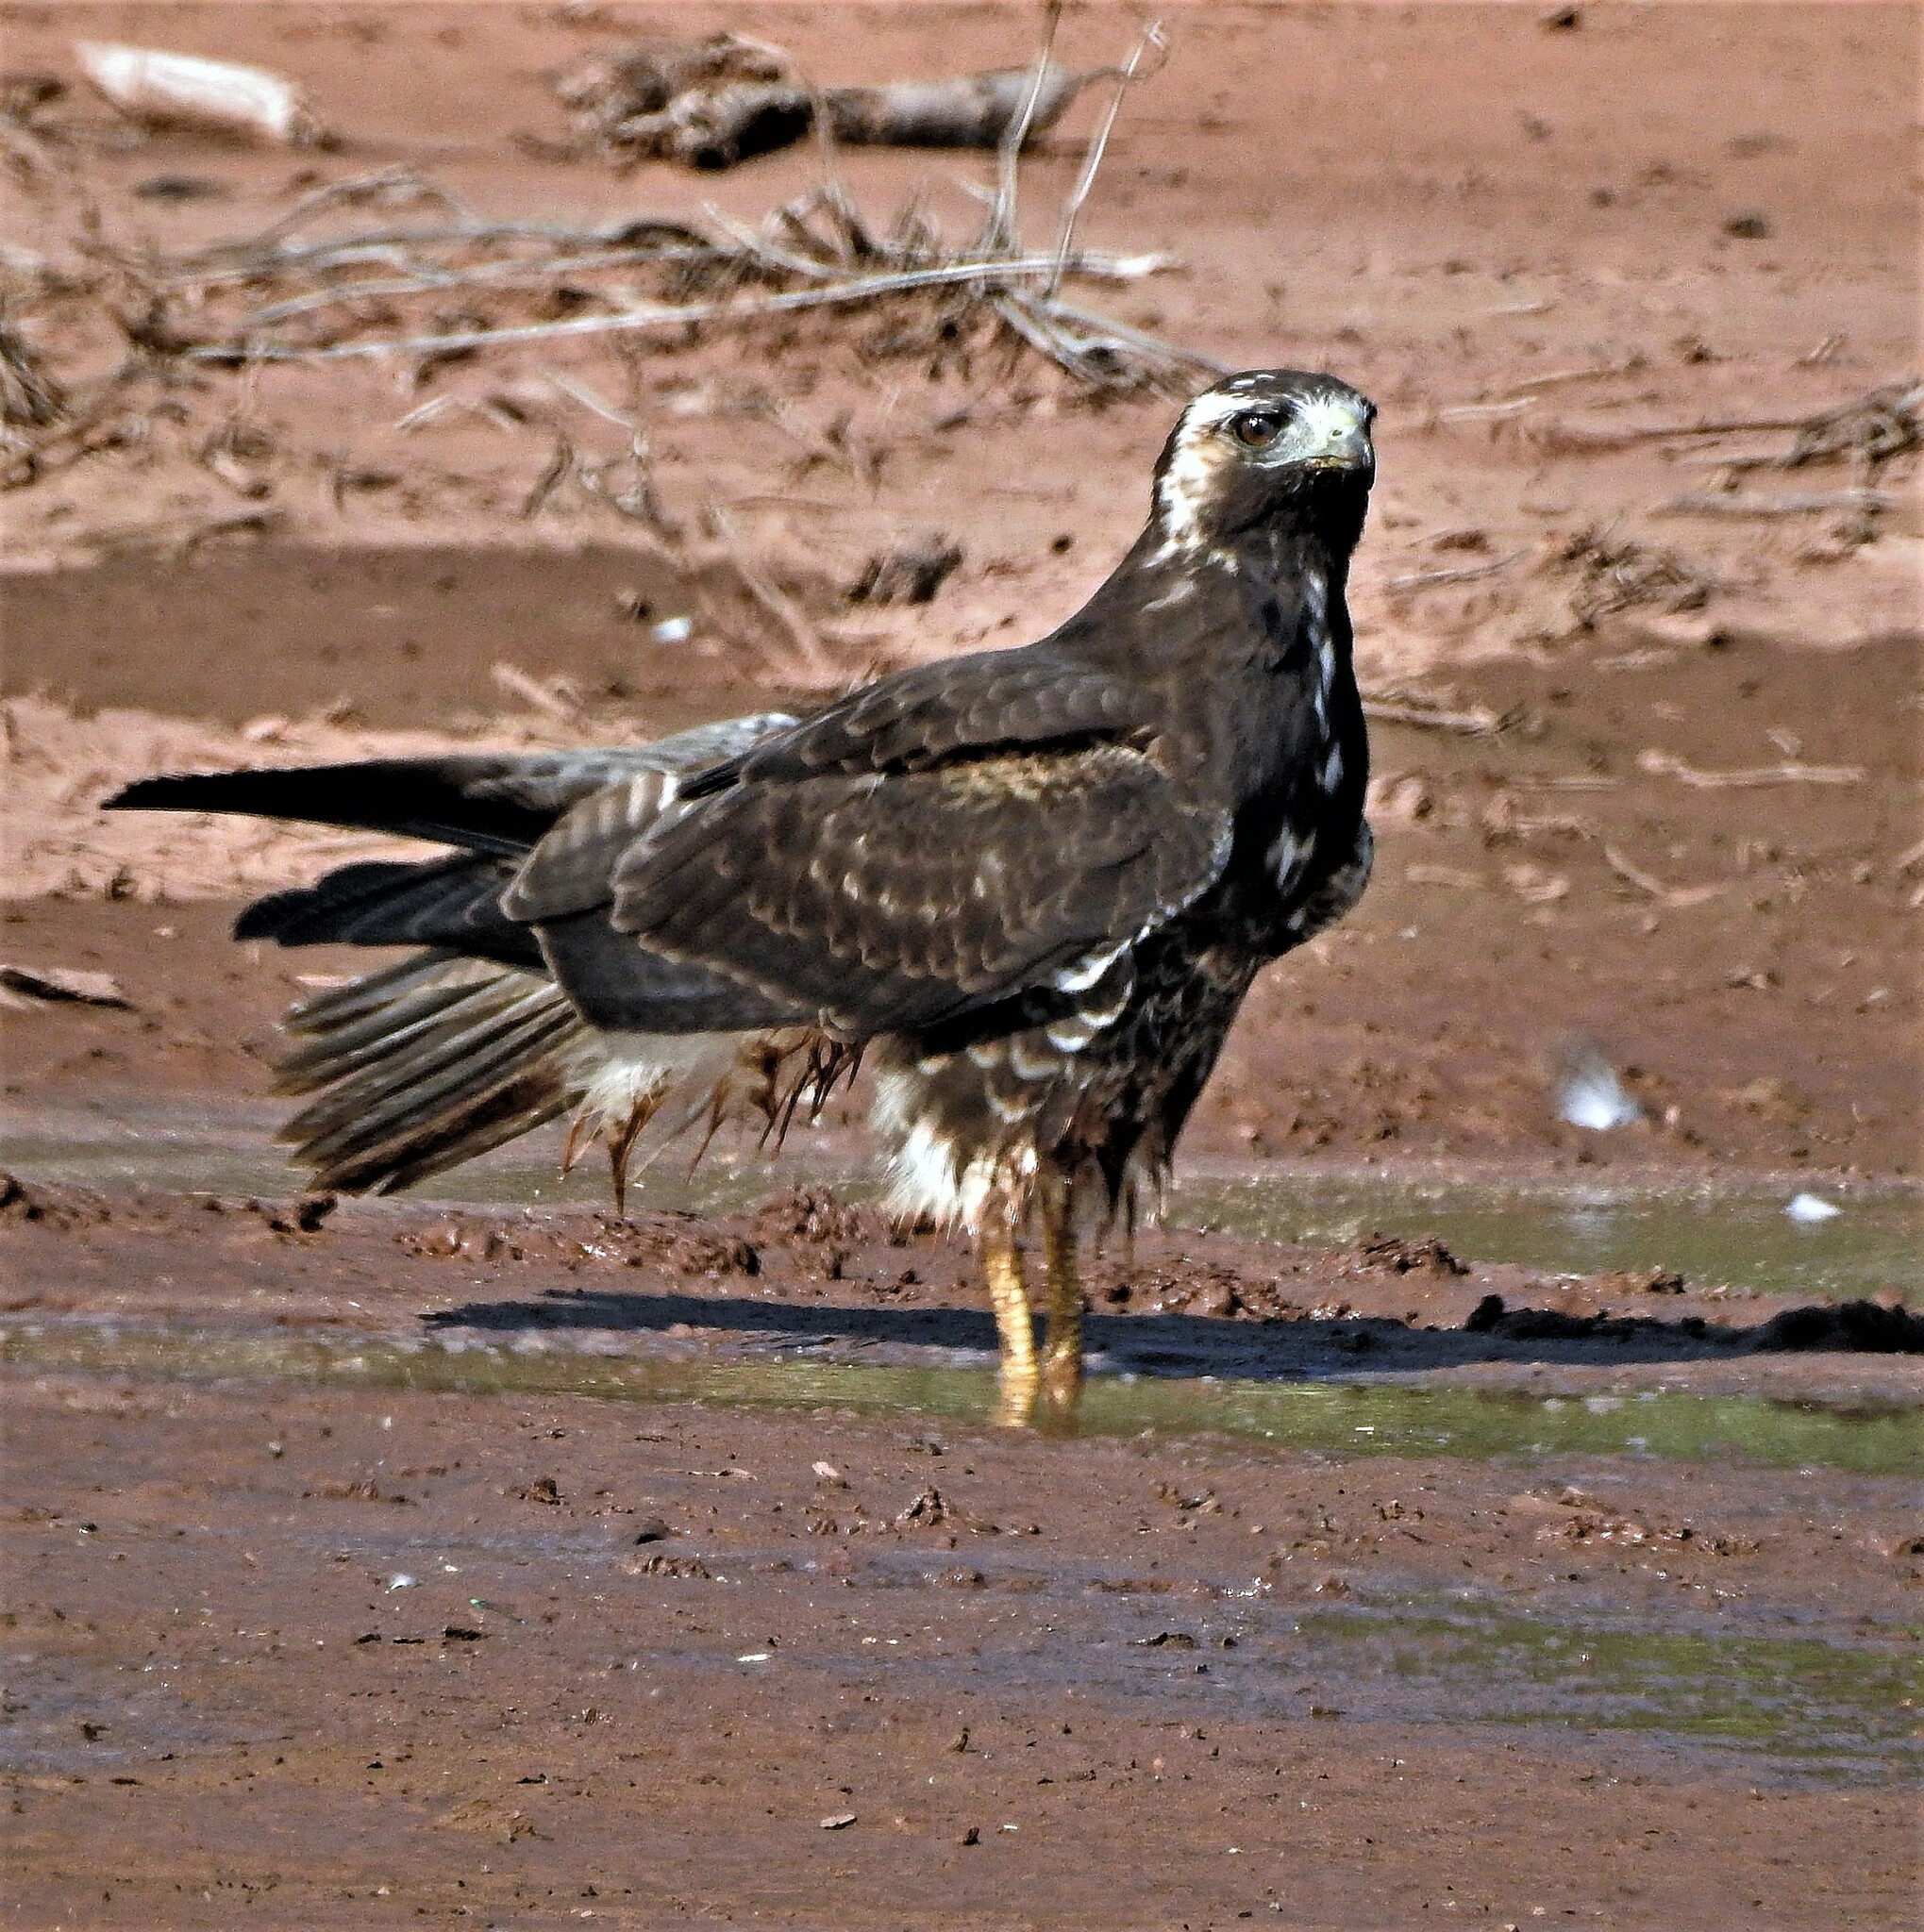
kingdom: Animalia
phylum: Chordata
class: Aves
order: Accipitriformes
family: Accipitridae
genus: Buteo
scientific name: Buteo albicaudatus
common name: White-tailed hawk
